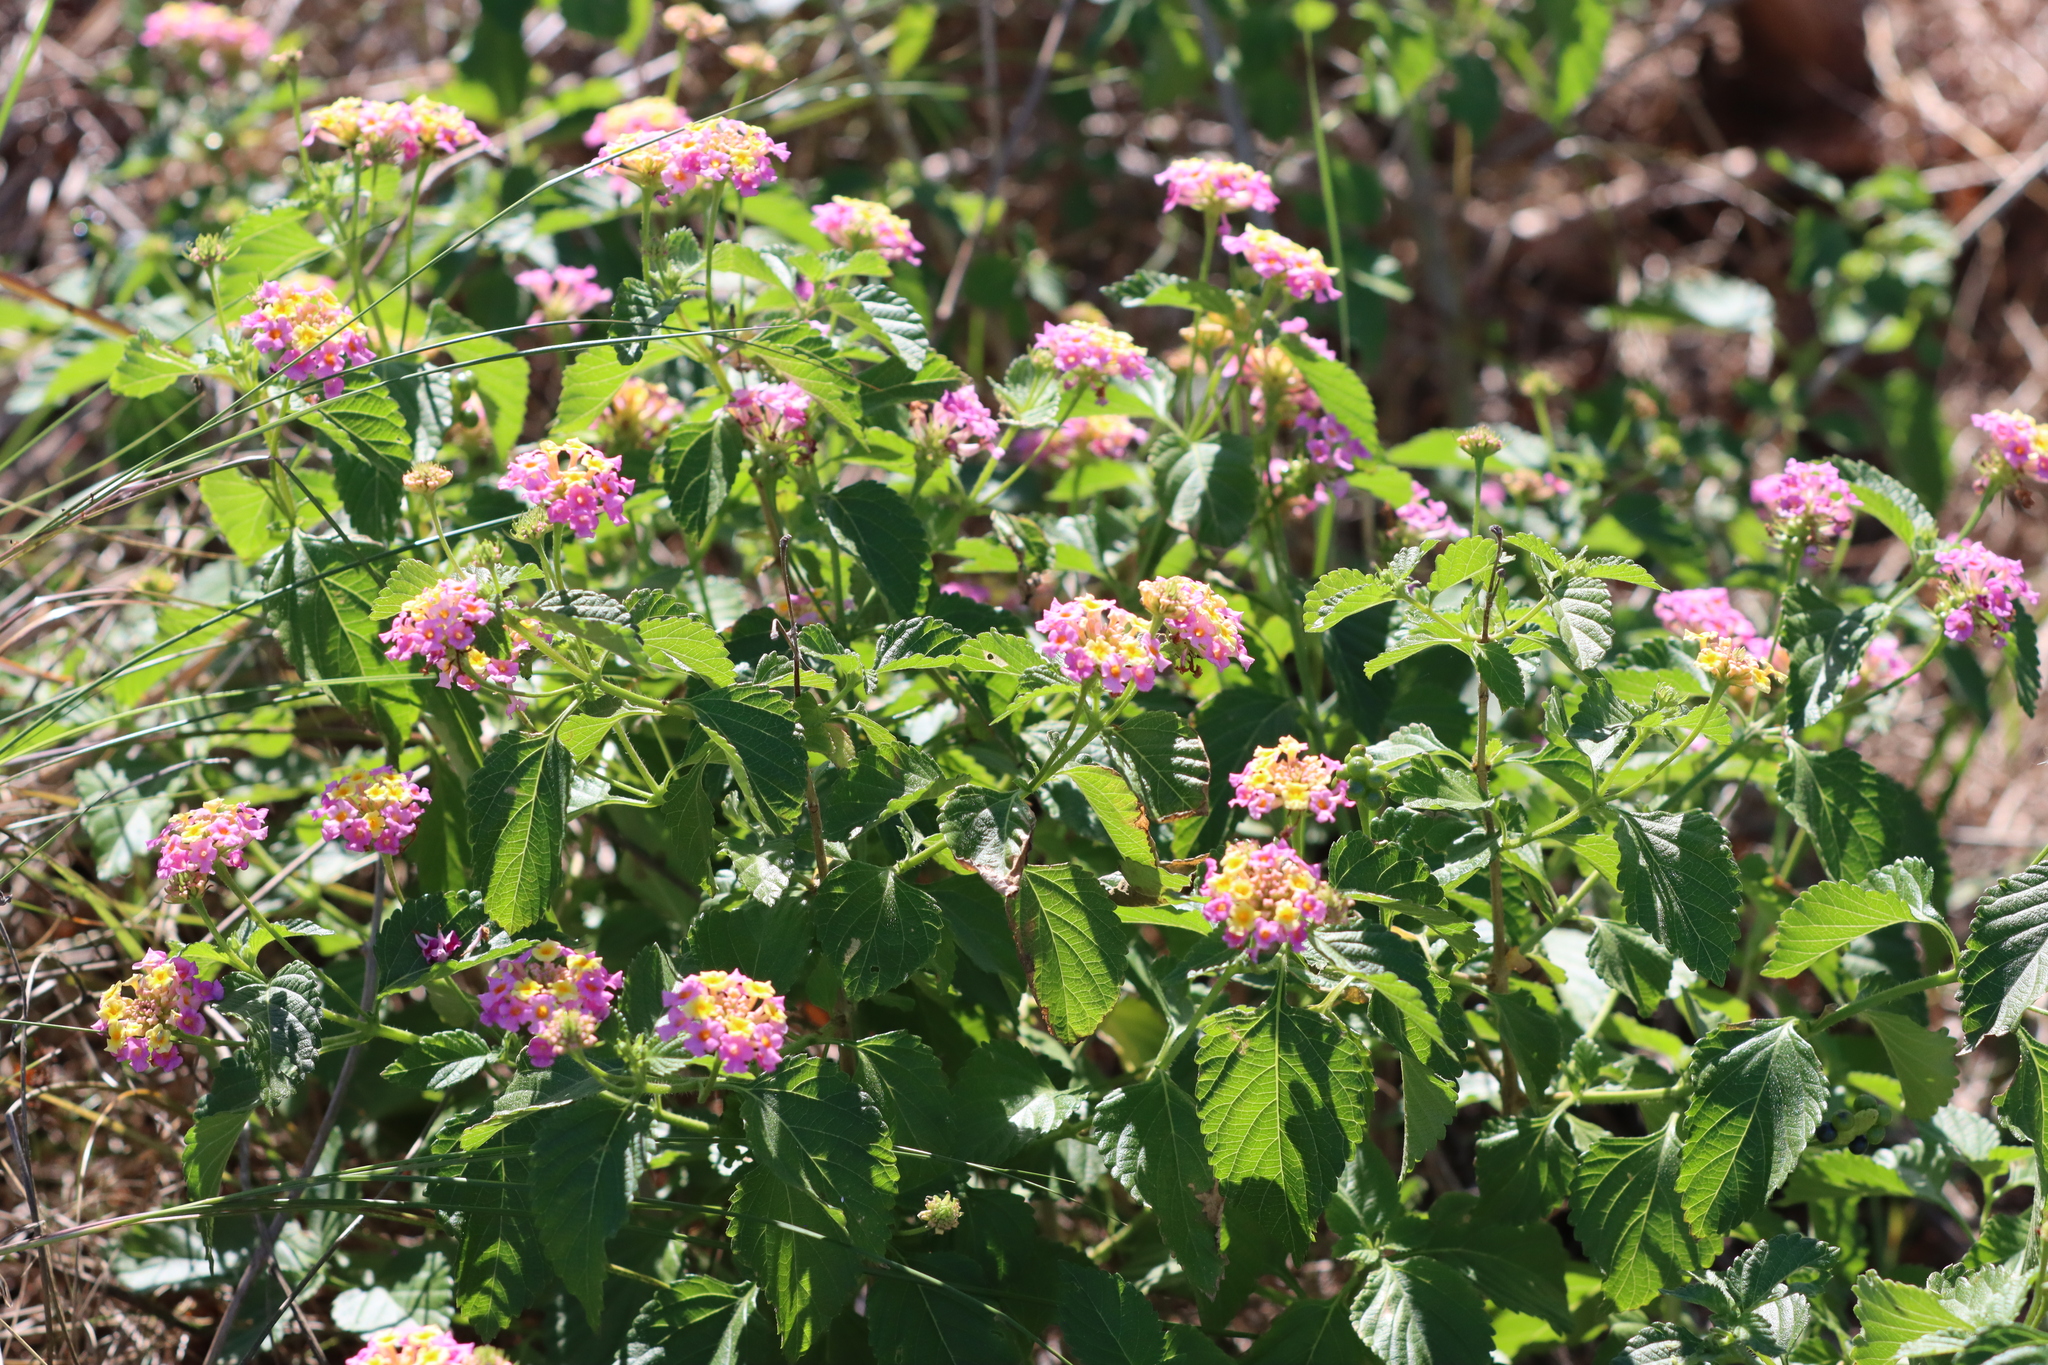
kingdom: Plantae
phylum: Tracheophyta
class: Magnoliopsida
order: Lamiales
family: Verbenaceae
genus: Lantana
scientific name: Lantana strigocamara
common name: Lantana
